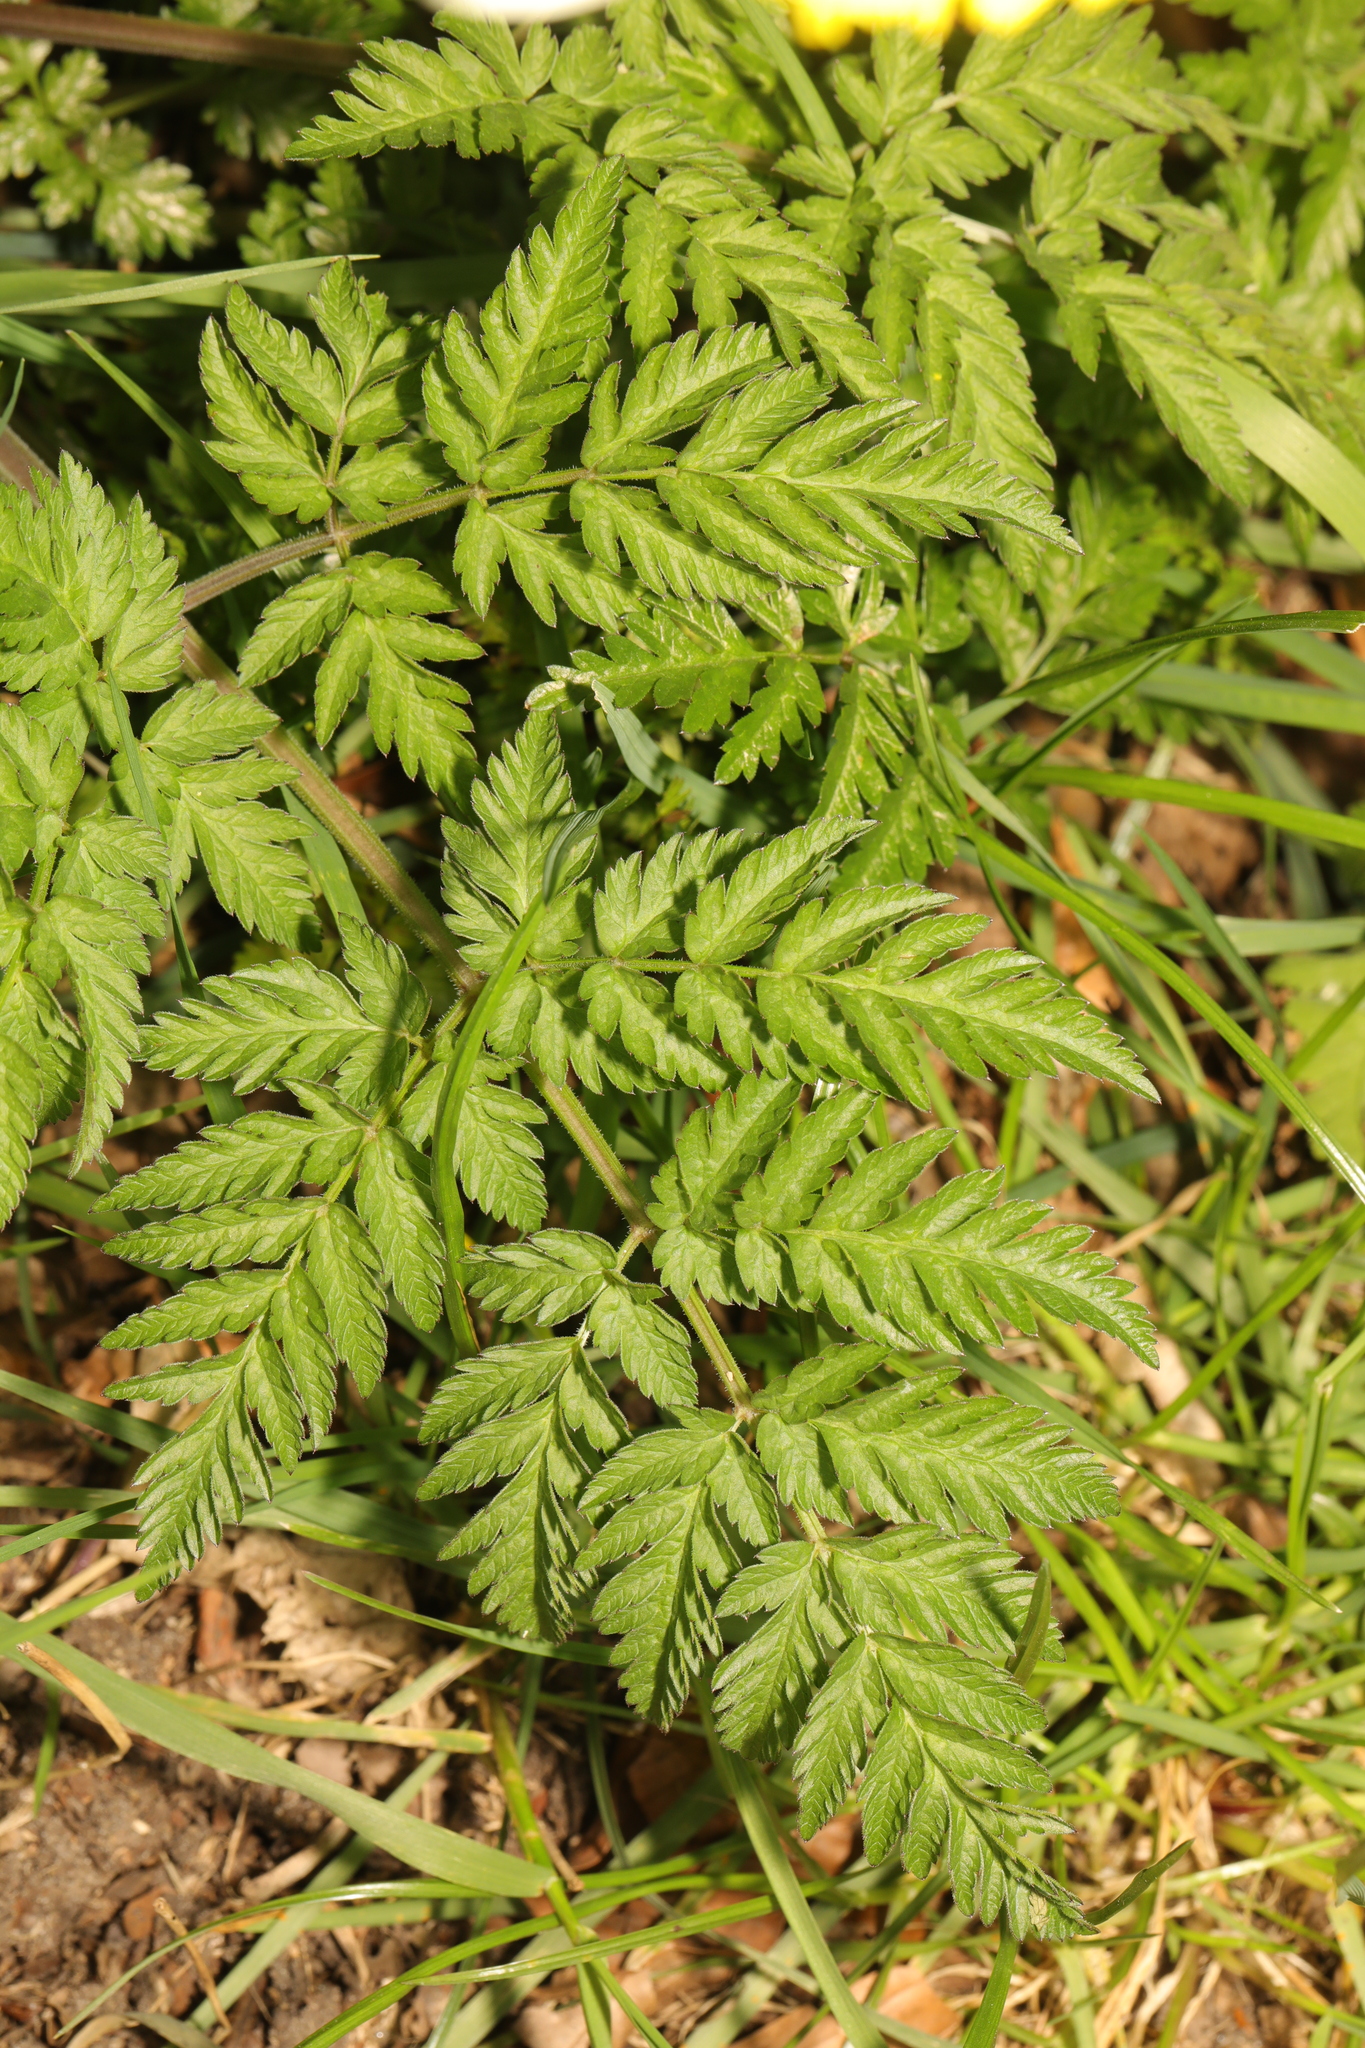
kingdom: Plantae
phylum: Tracheophyta
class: Magnoliopsida
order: Apiales
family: Apiaceae
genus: Anthriscus
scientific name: Anthriscus sylvestris
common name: Cow parsley
